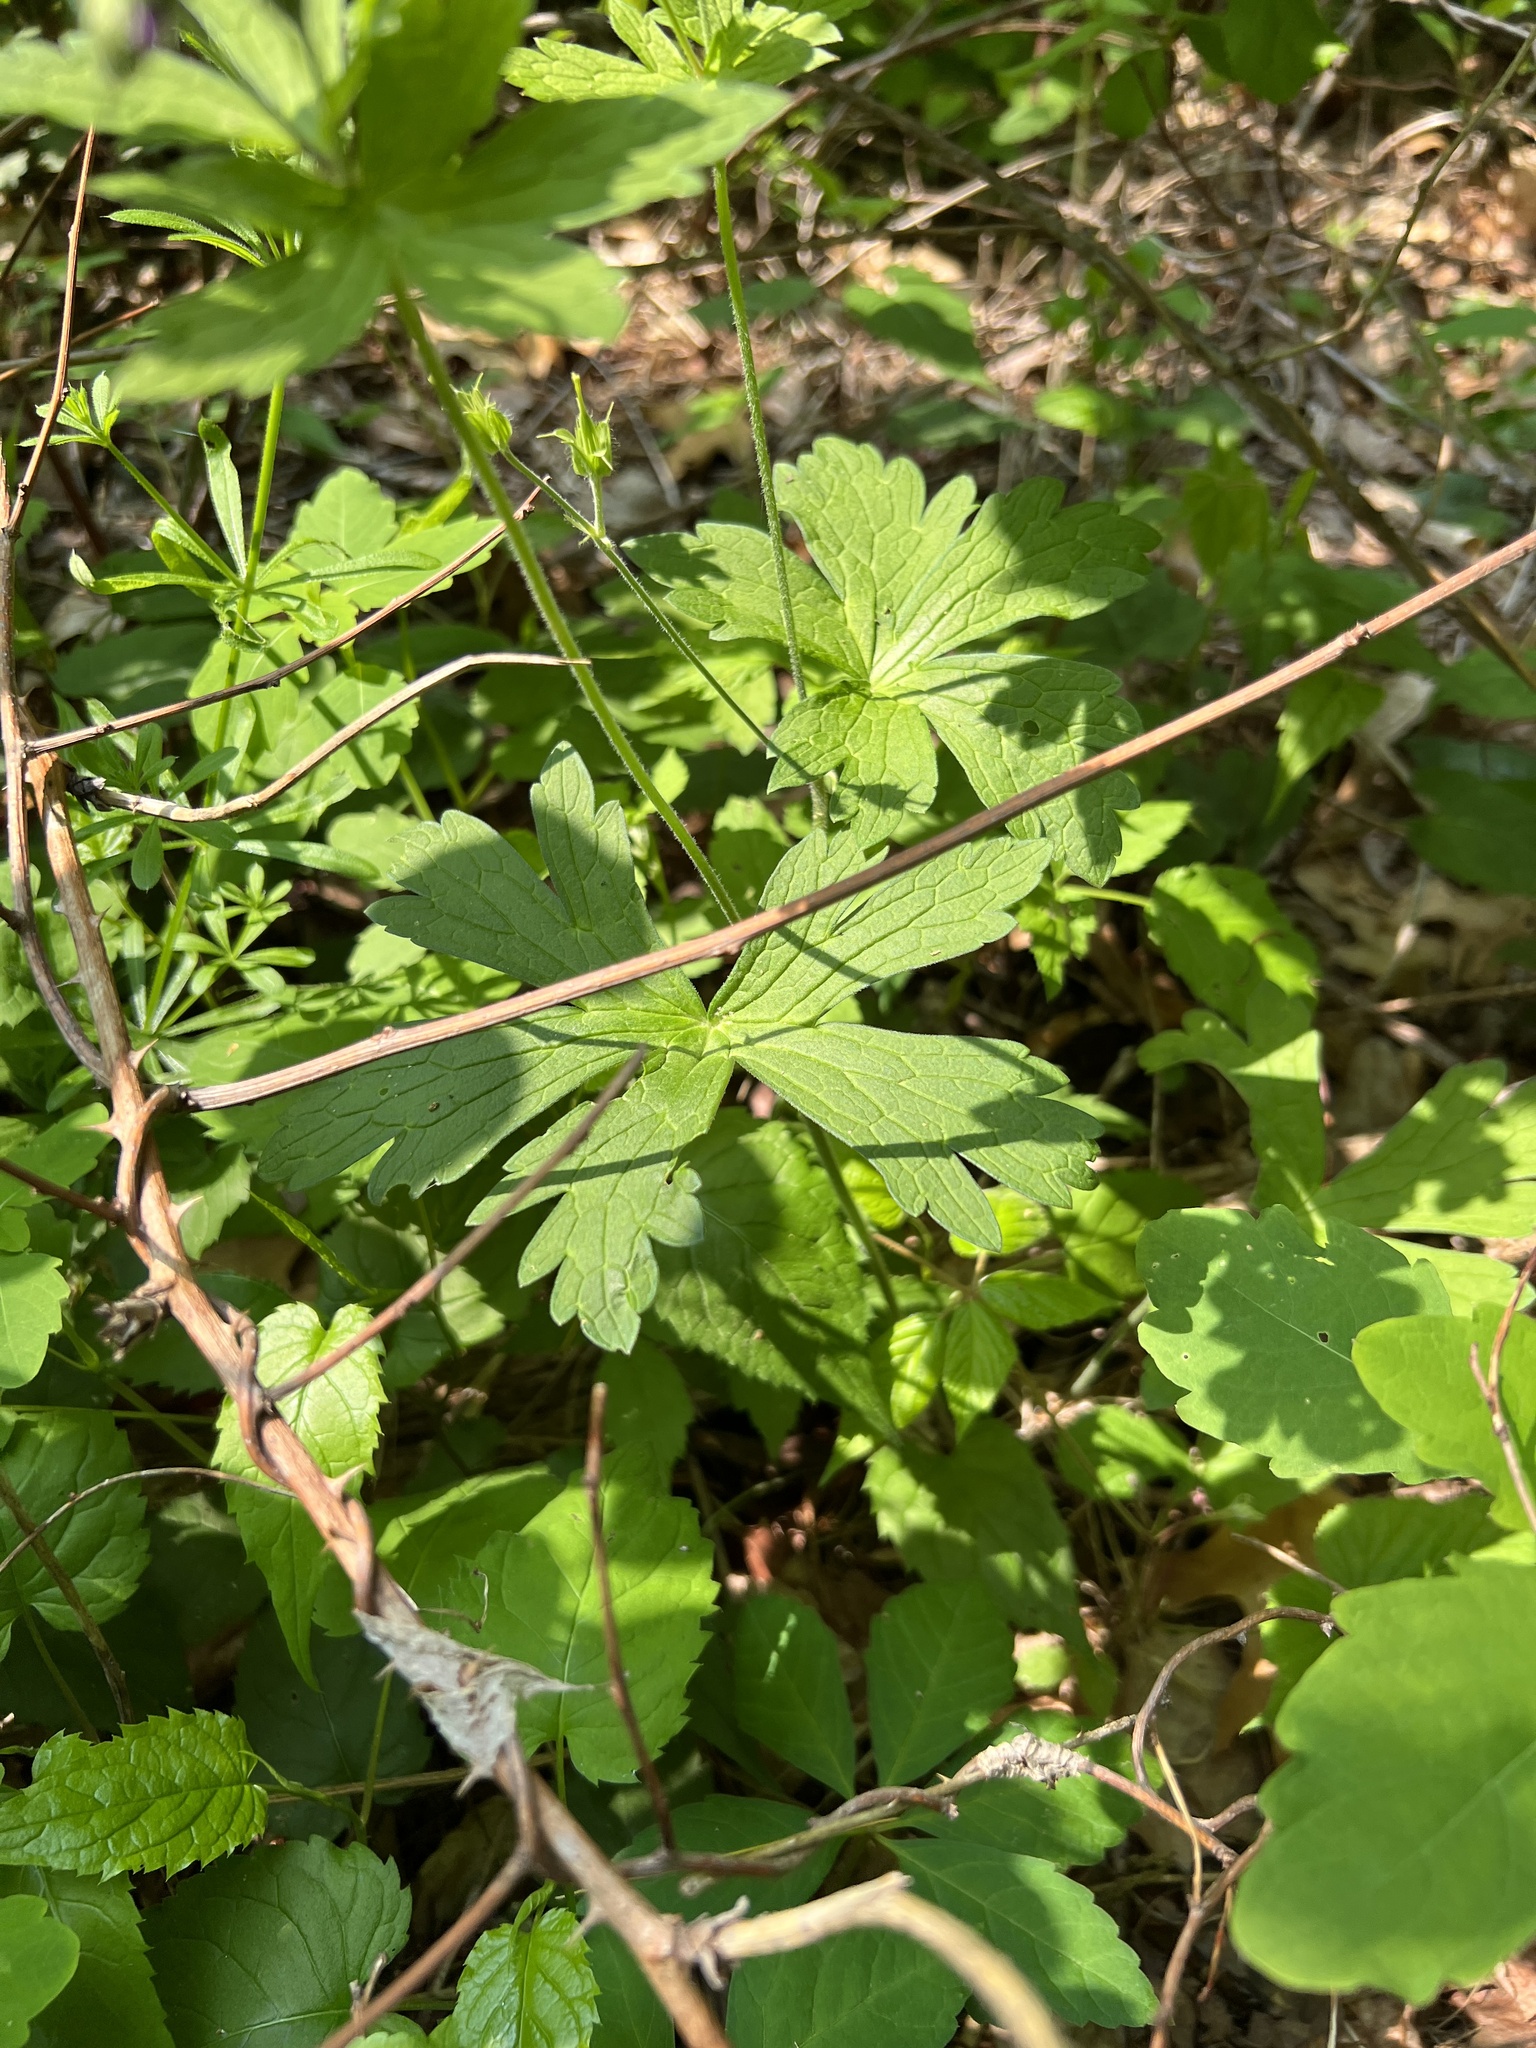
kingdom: Plantae
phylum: Tracheophyta
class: Magnoliopsida
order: Geraniales
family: Geraniaceae
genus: Geranium
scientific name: Geranium maculatum
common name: Spotted geranium
